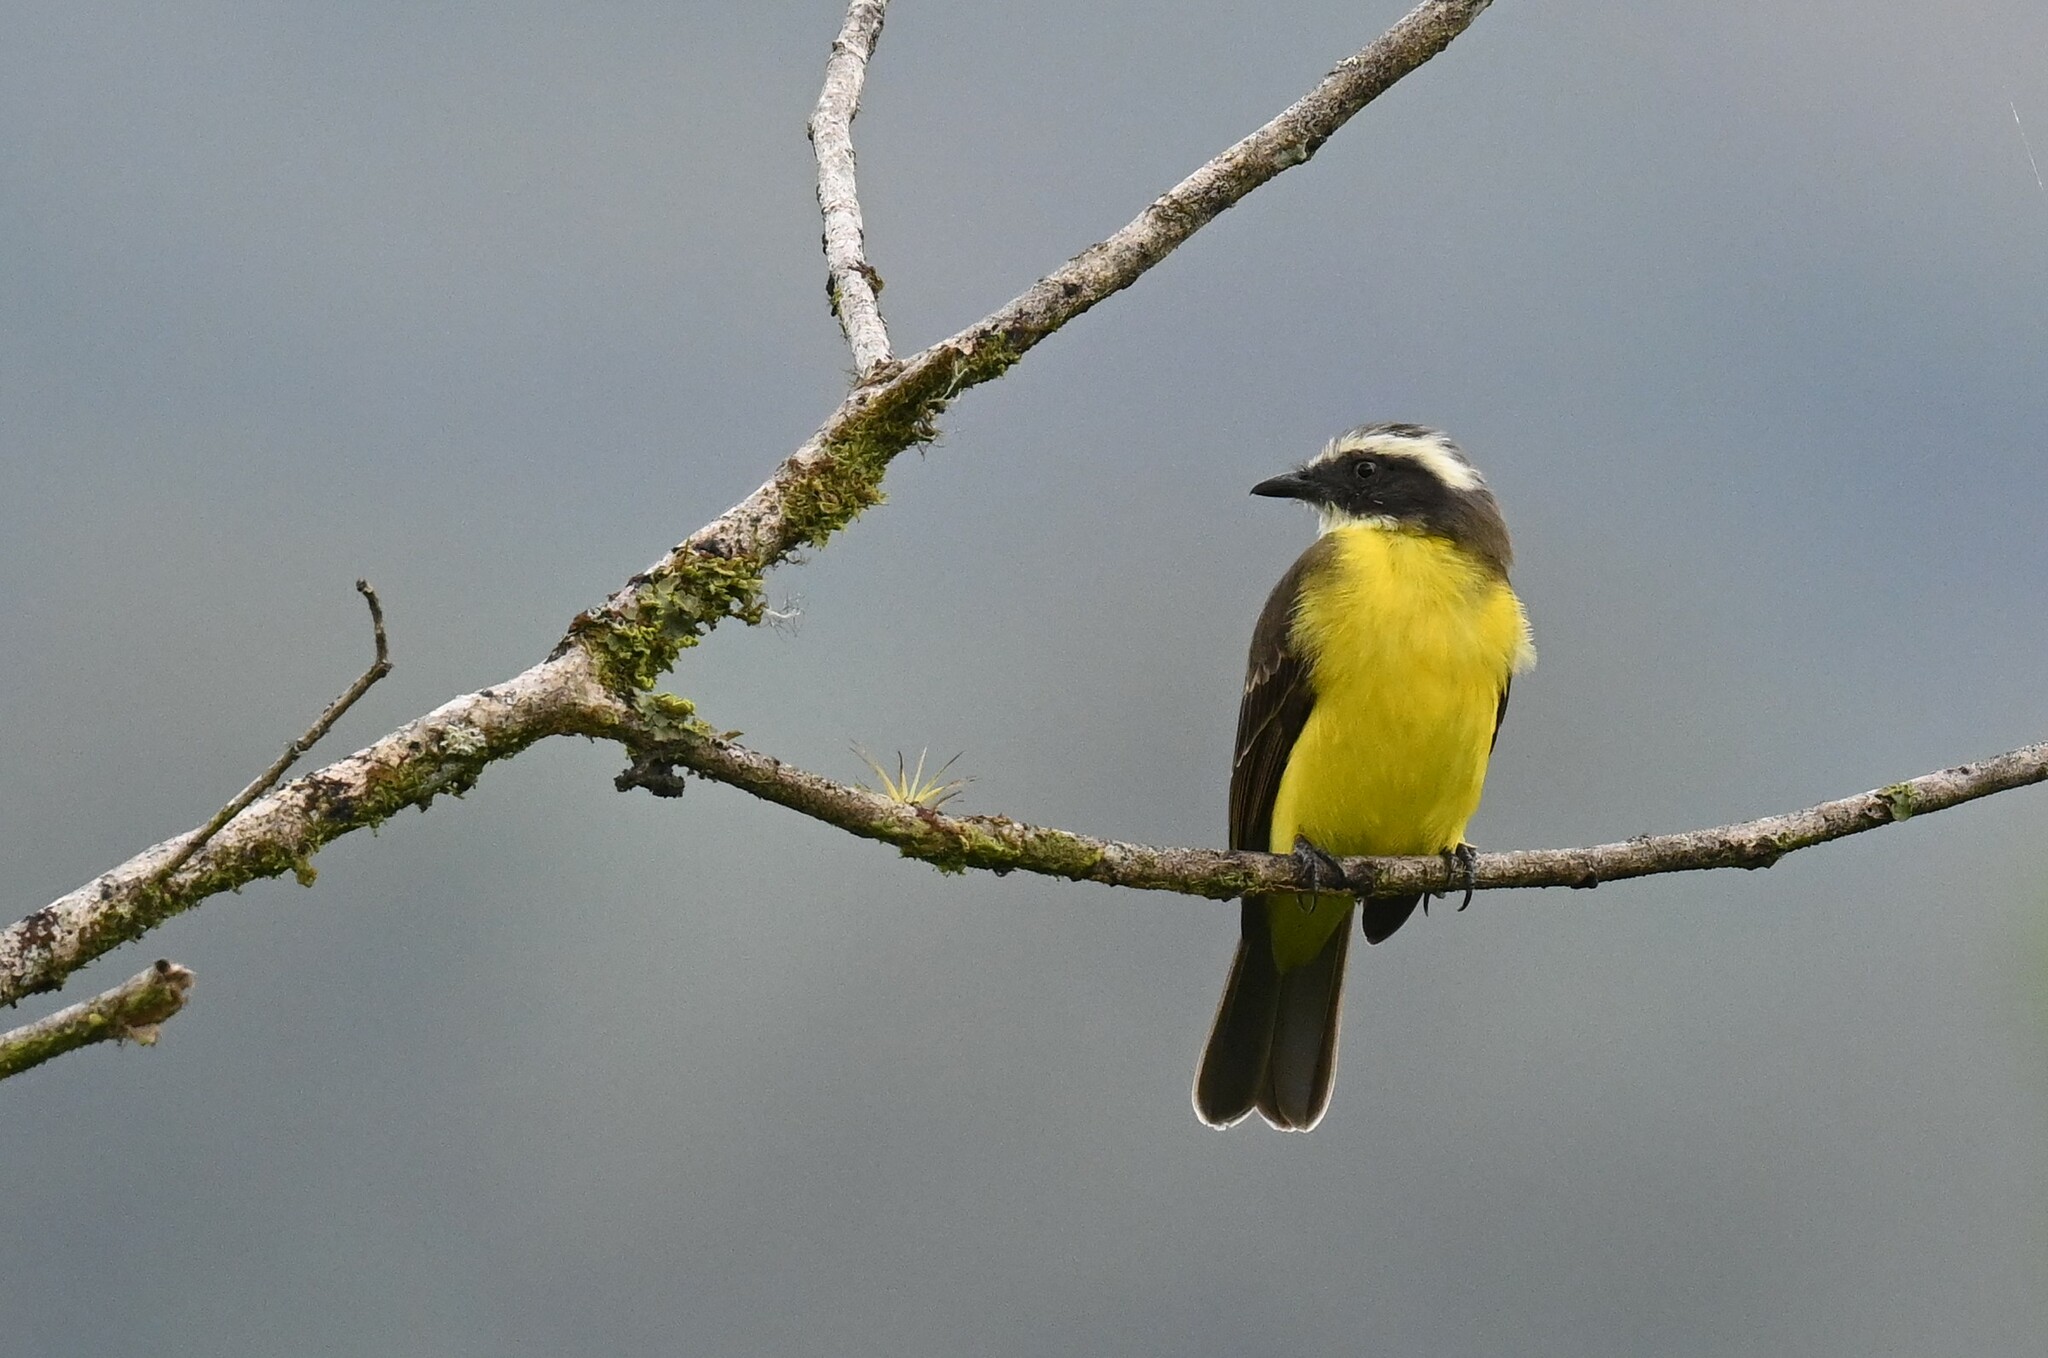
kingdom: Animalia
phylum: Chordata
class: Aves
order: Passeriformes
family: Tyrannidae
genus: Myiozetetes
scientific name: Myiozetetes similis
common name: Social flycatcher
